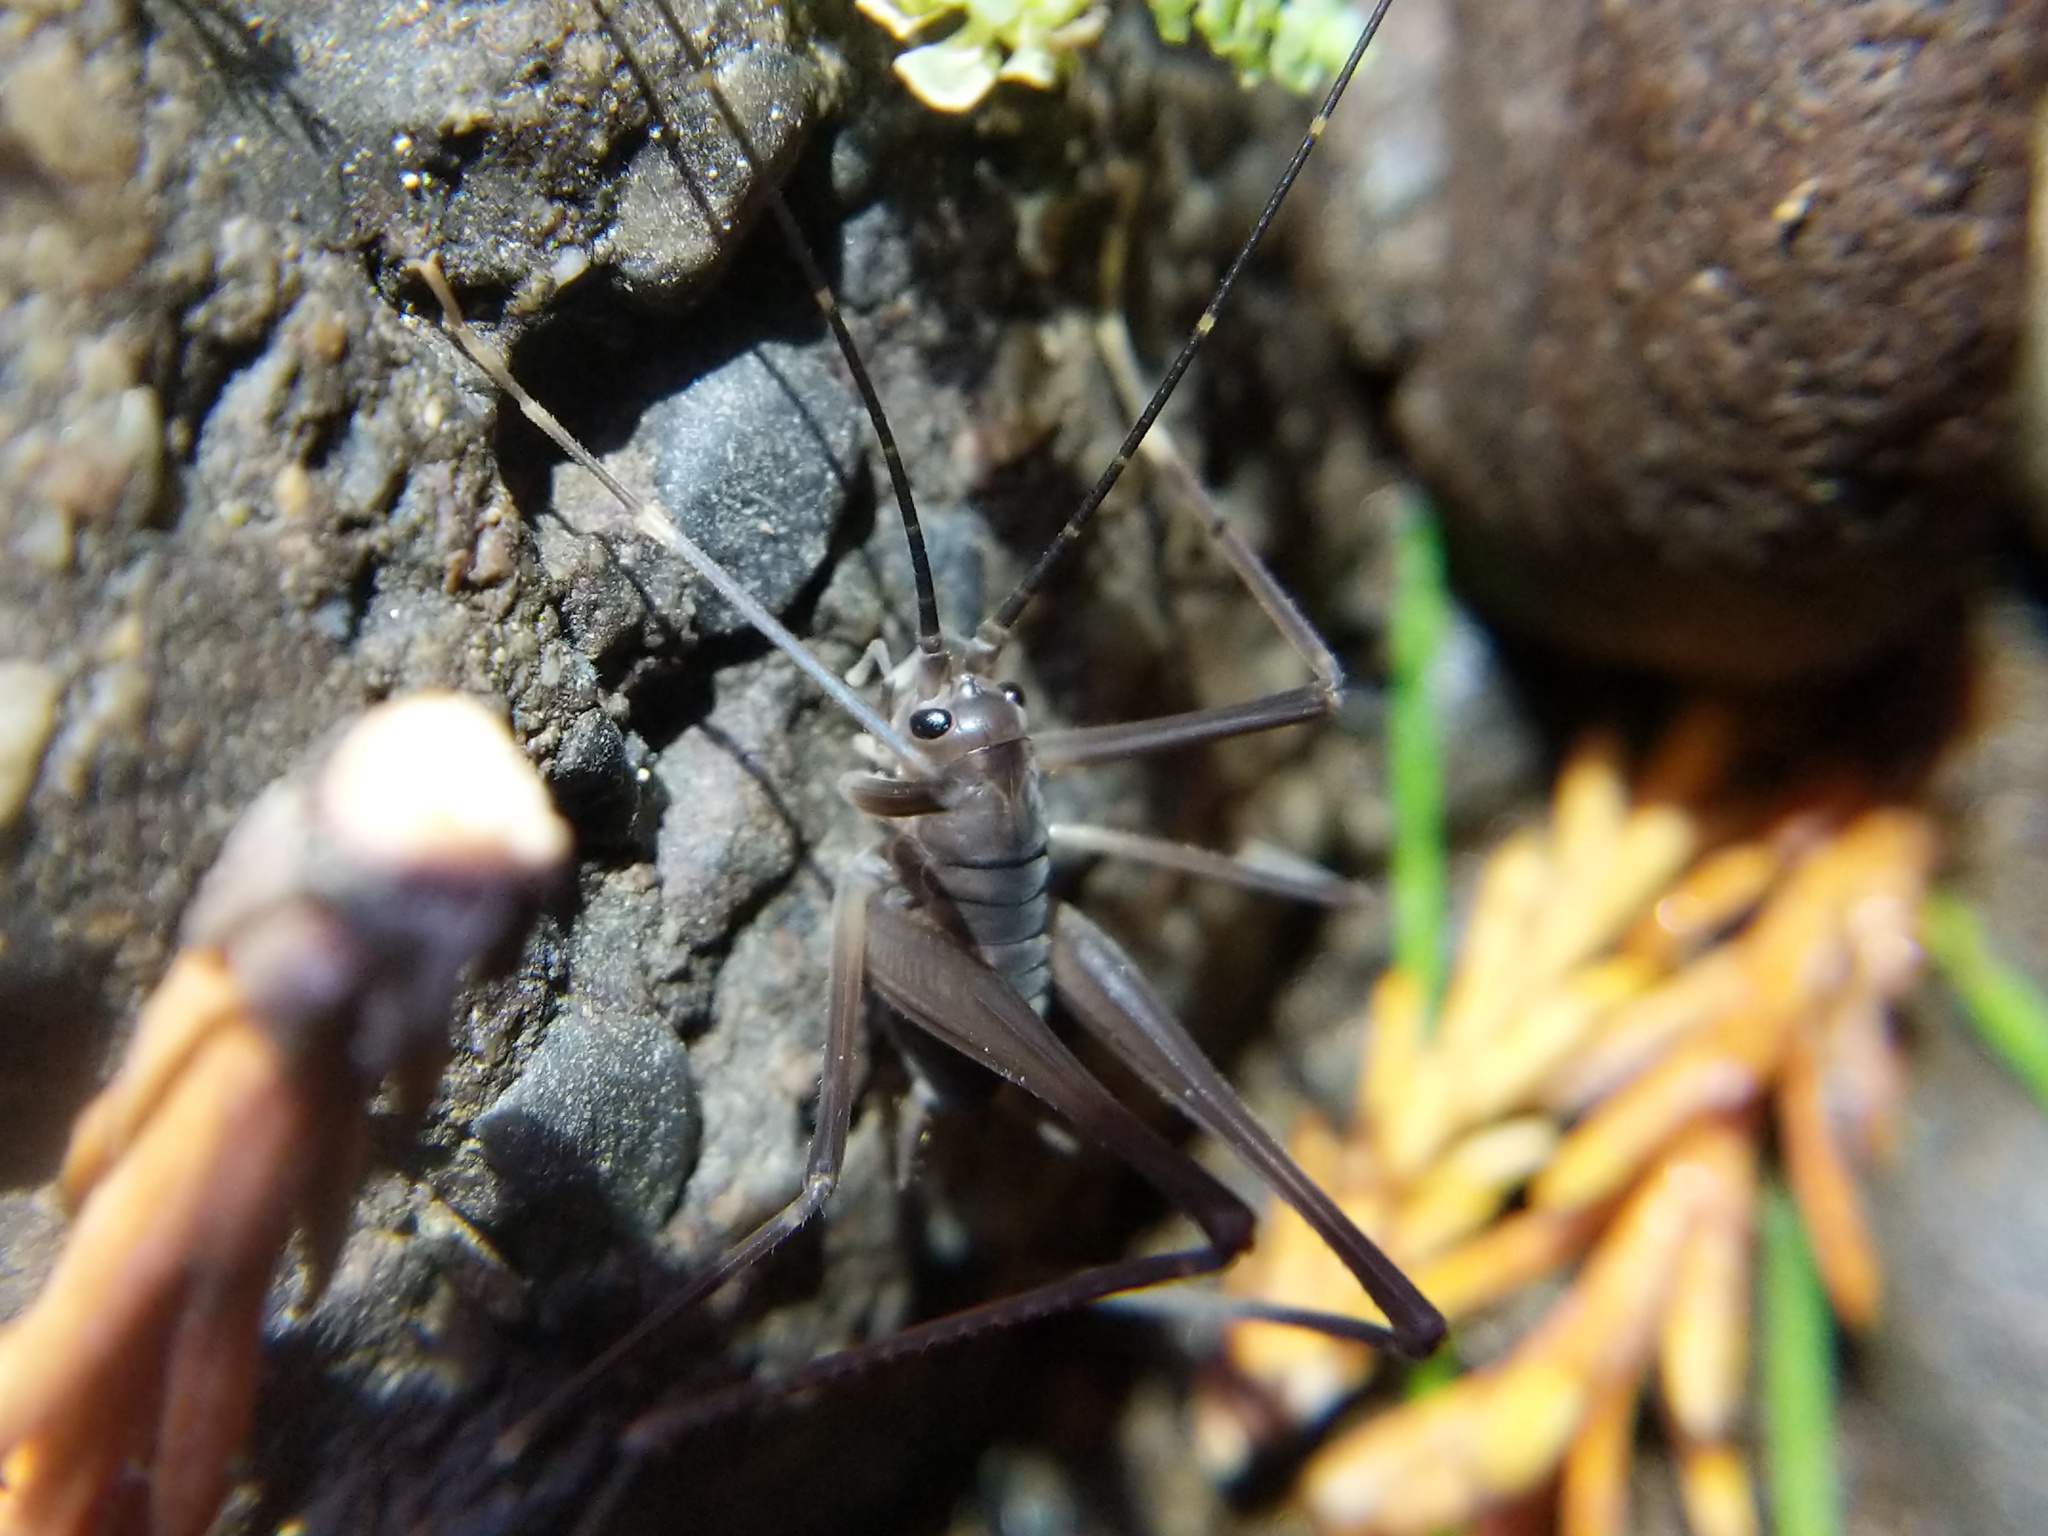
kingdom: Animalia
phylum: Arthropoda
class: Insecta
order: Orthoptera
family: Rhaphidophoridae
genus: Tropidischia
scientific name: Tropidischia xanthostoma
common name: Square-legged camel cricket
